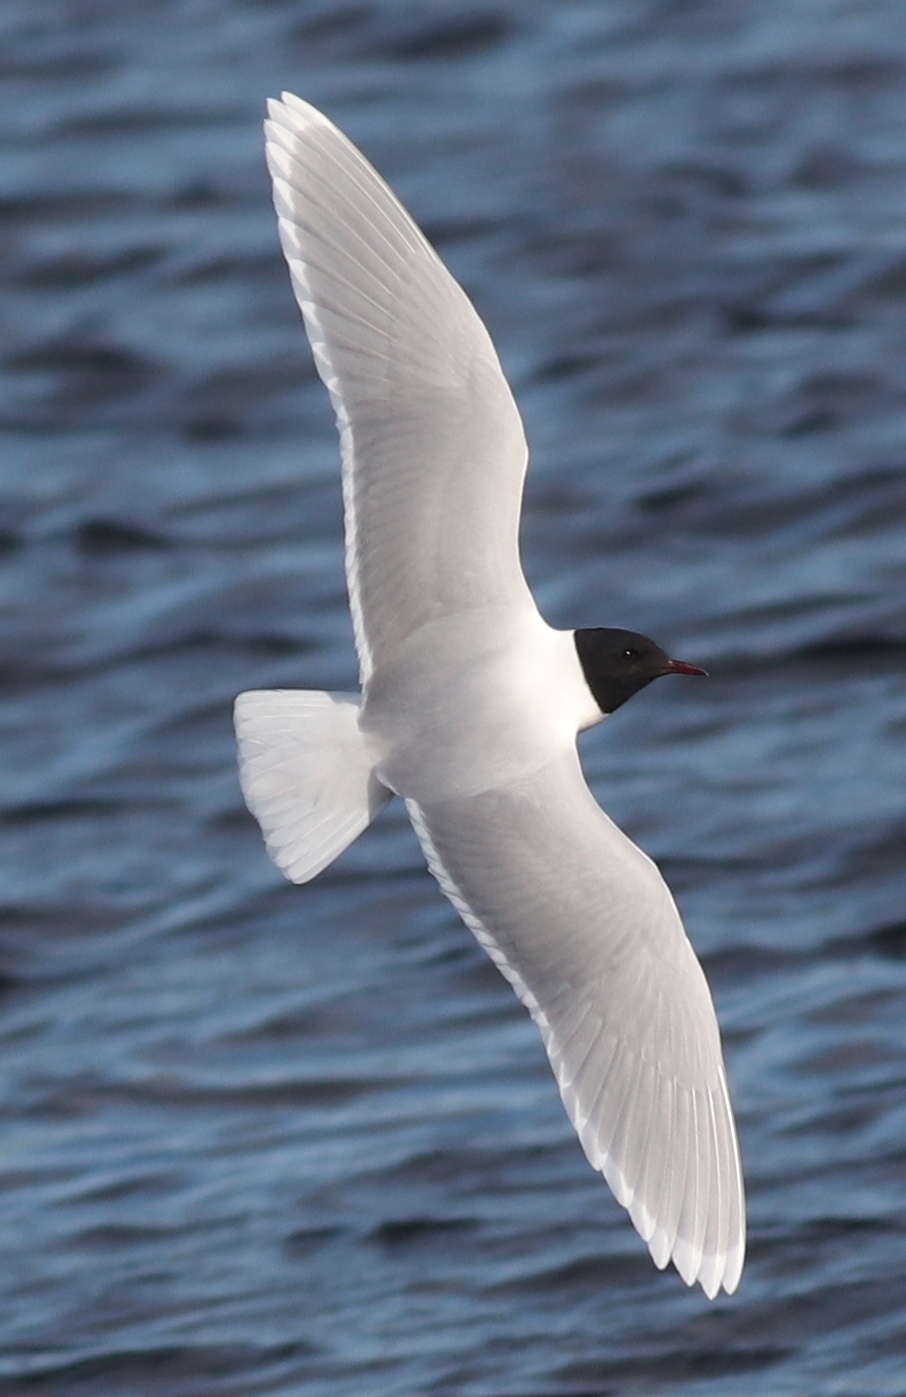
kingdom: Animalia
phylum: Chordata
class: Aves
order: Charadriiformes
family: Laridae
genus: Hydrocoloeus
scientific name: Hydrocoloeus minutus
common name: Little gull
